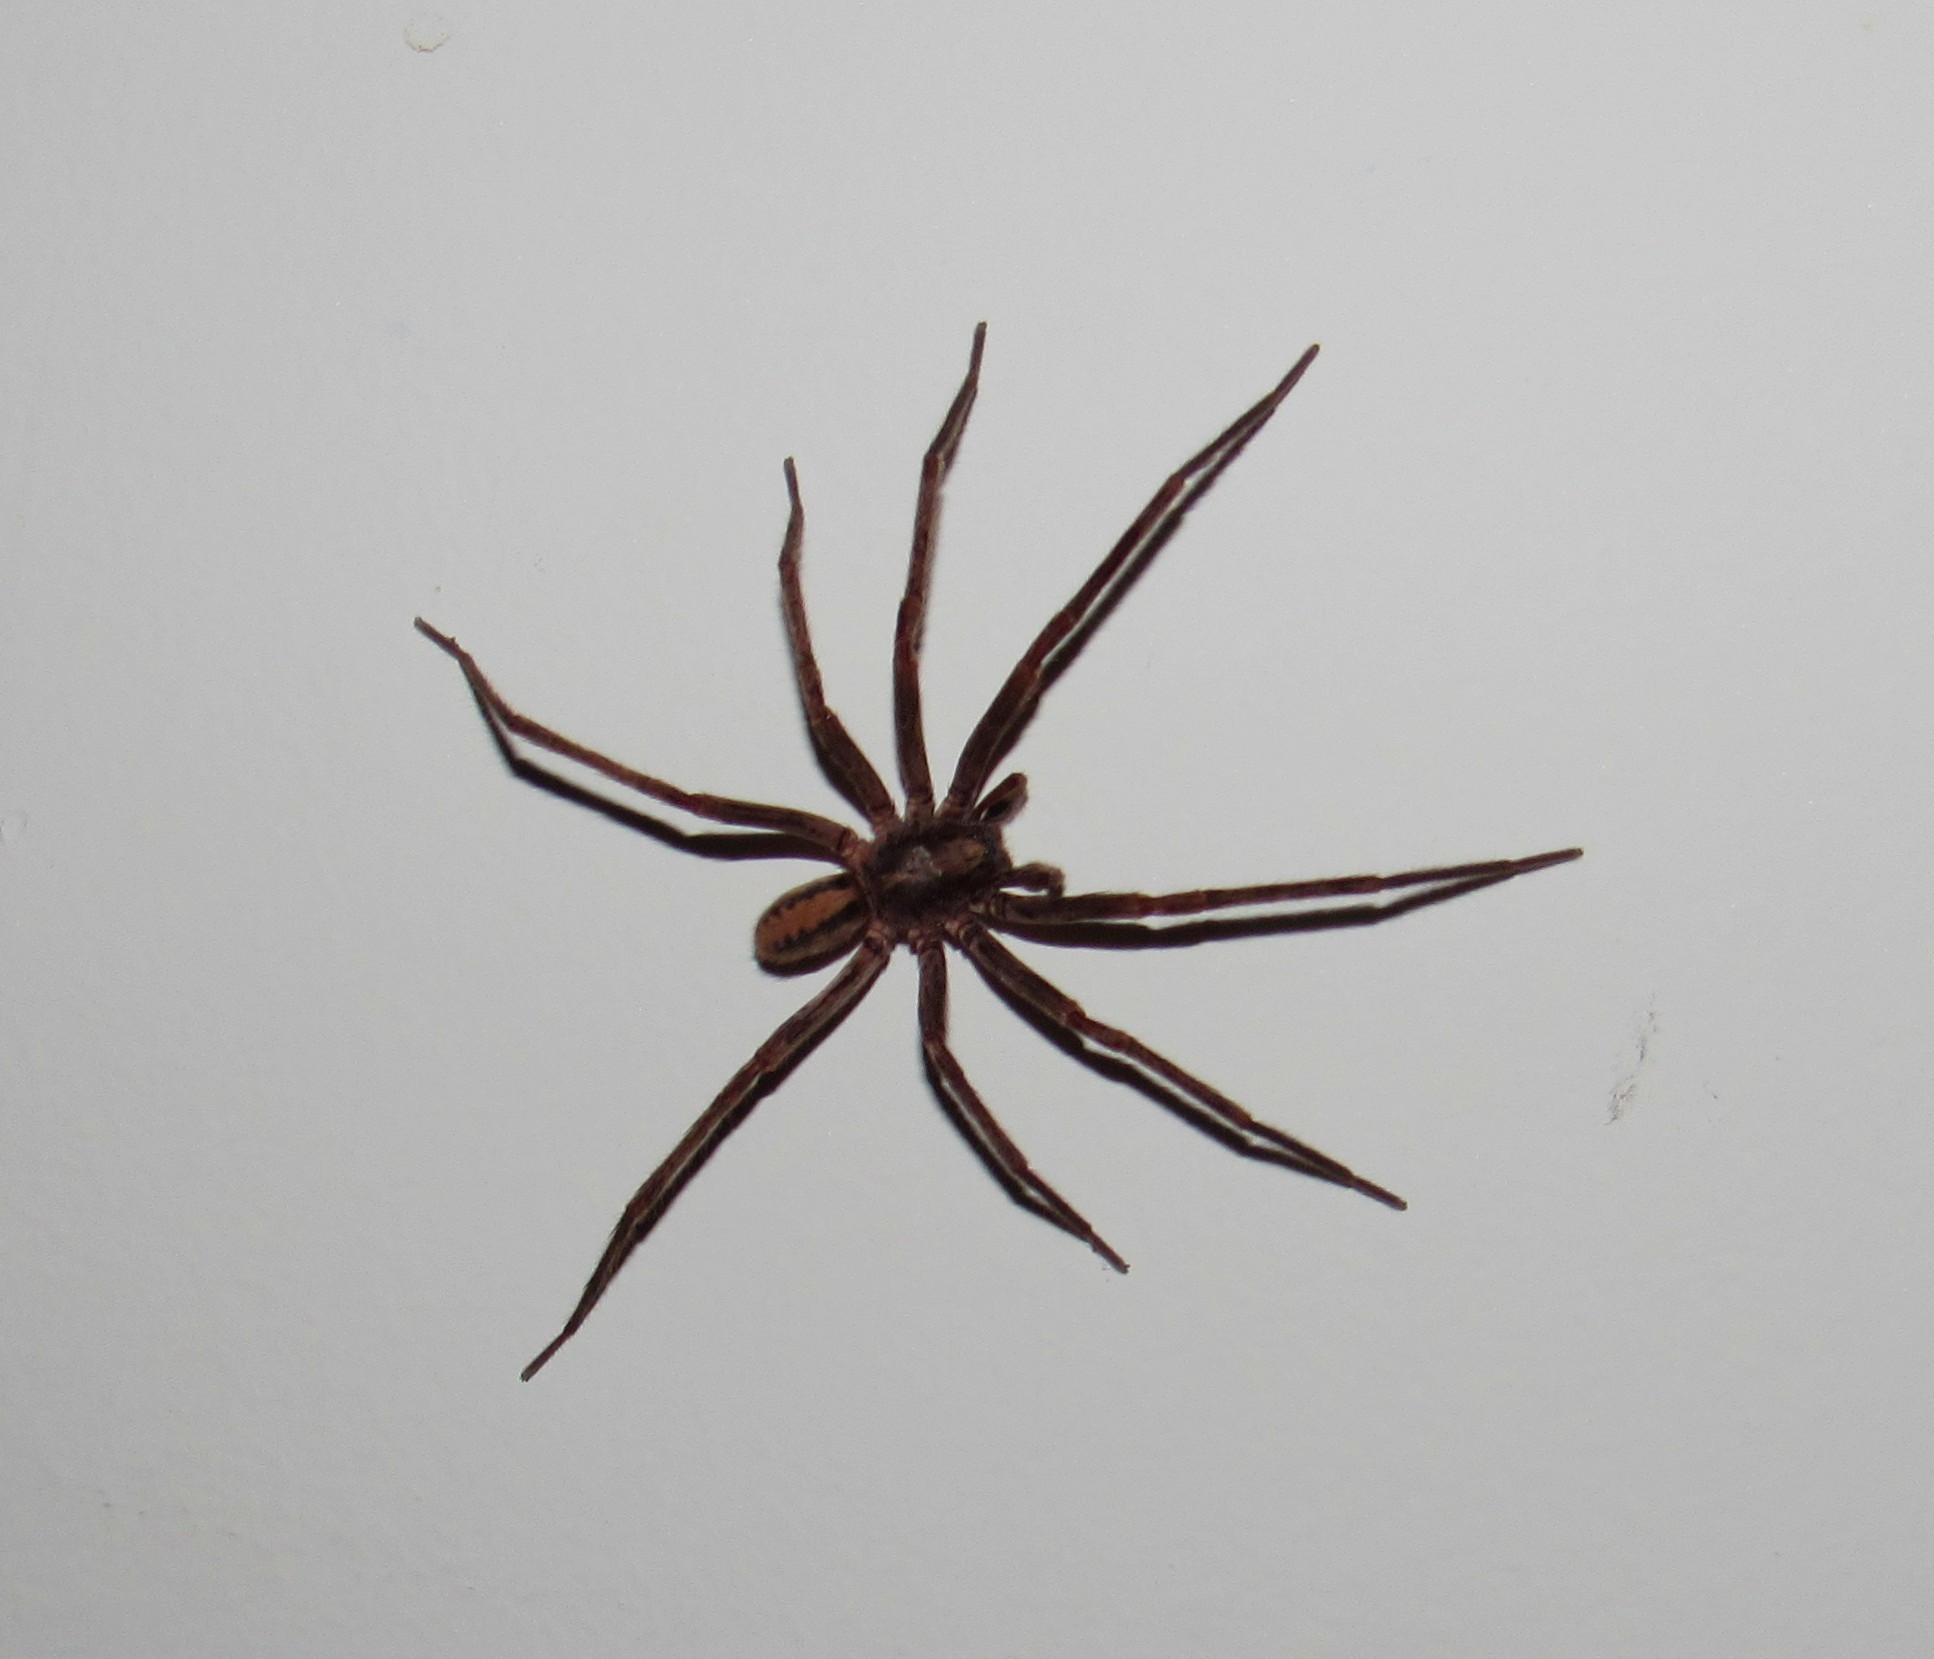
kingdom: Animalia
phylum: Arthropoda
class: Arachnida
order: Araneae
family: Corinnidae
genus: Xeropigo
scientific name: Xeropigo tridentiger
